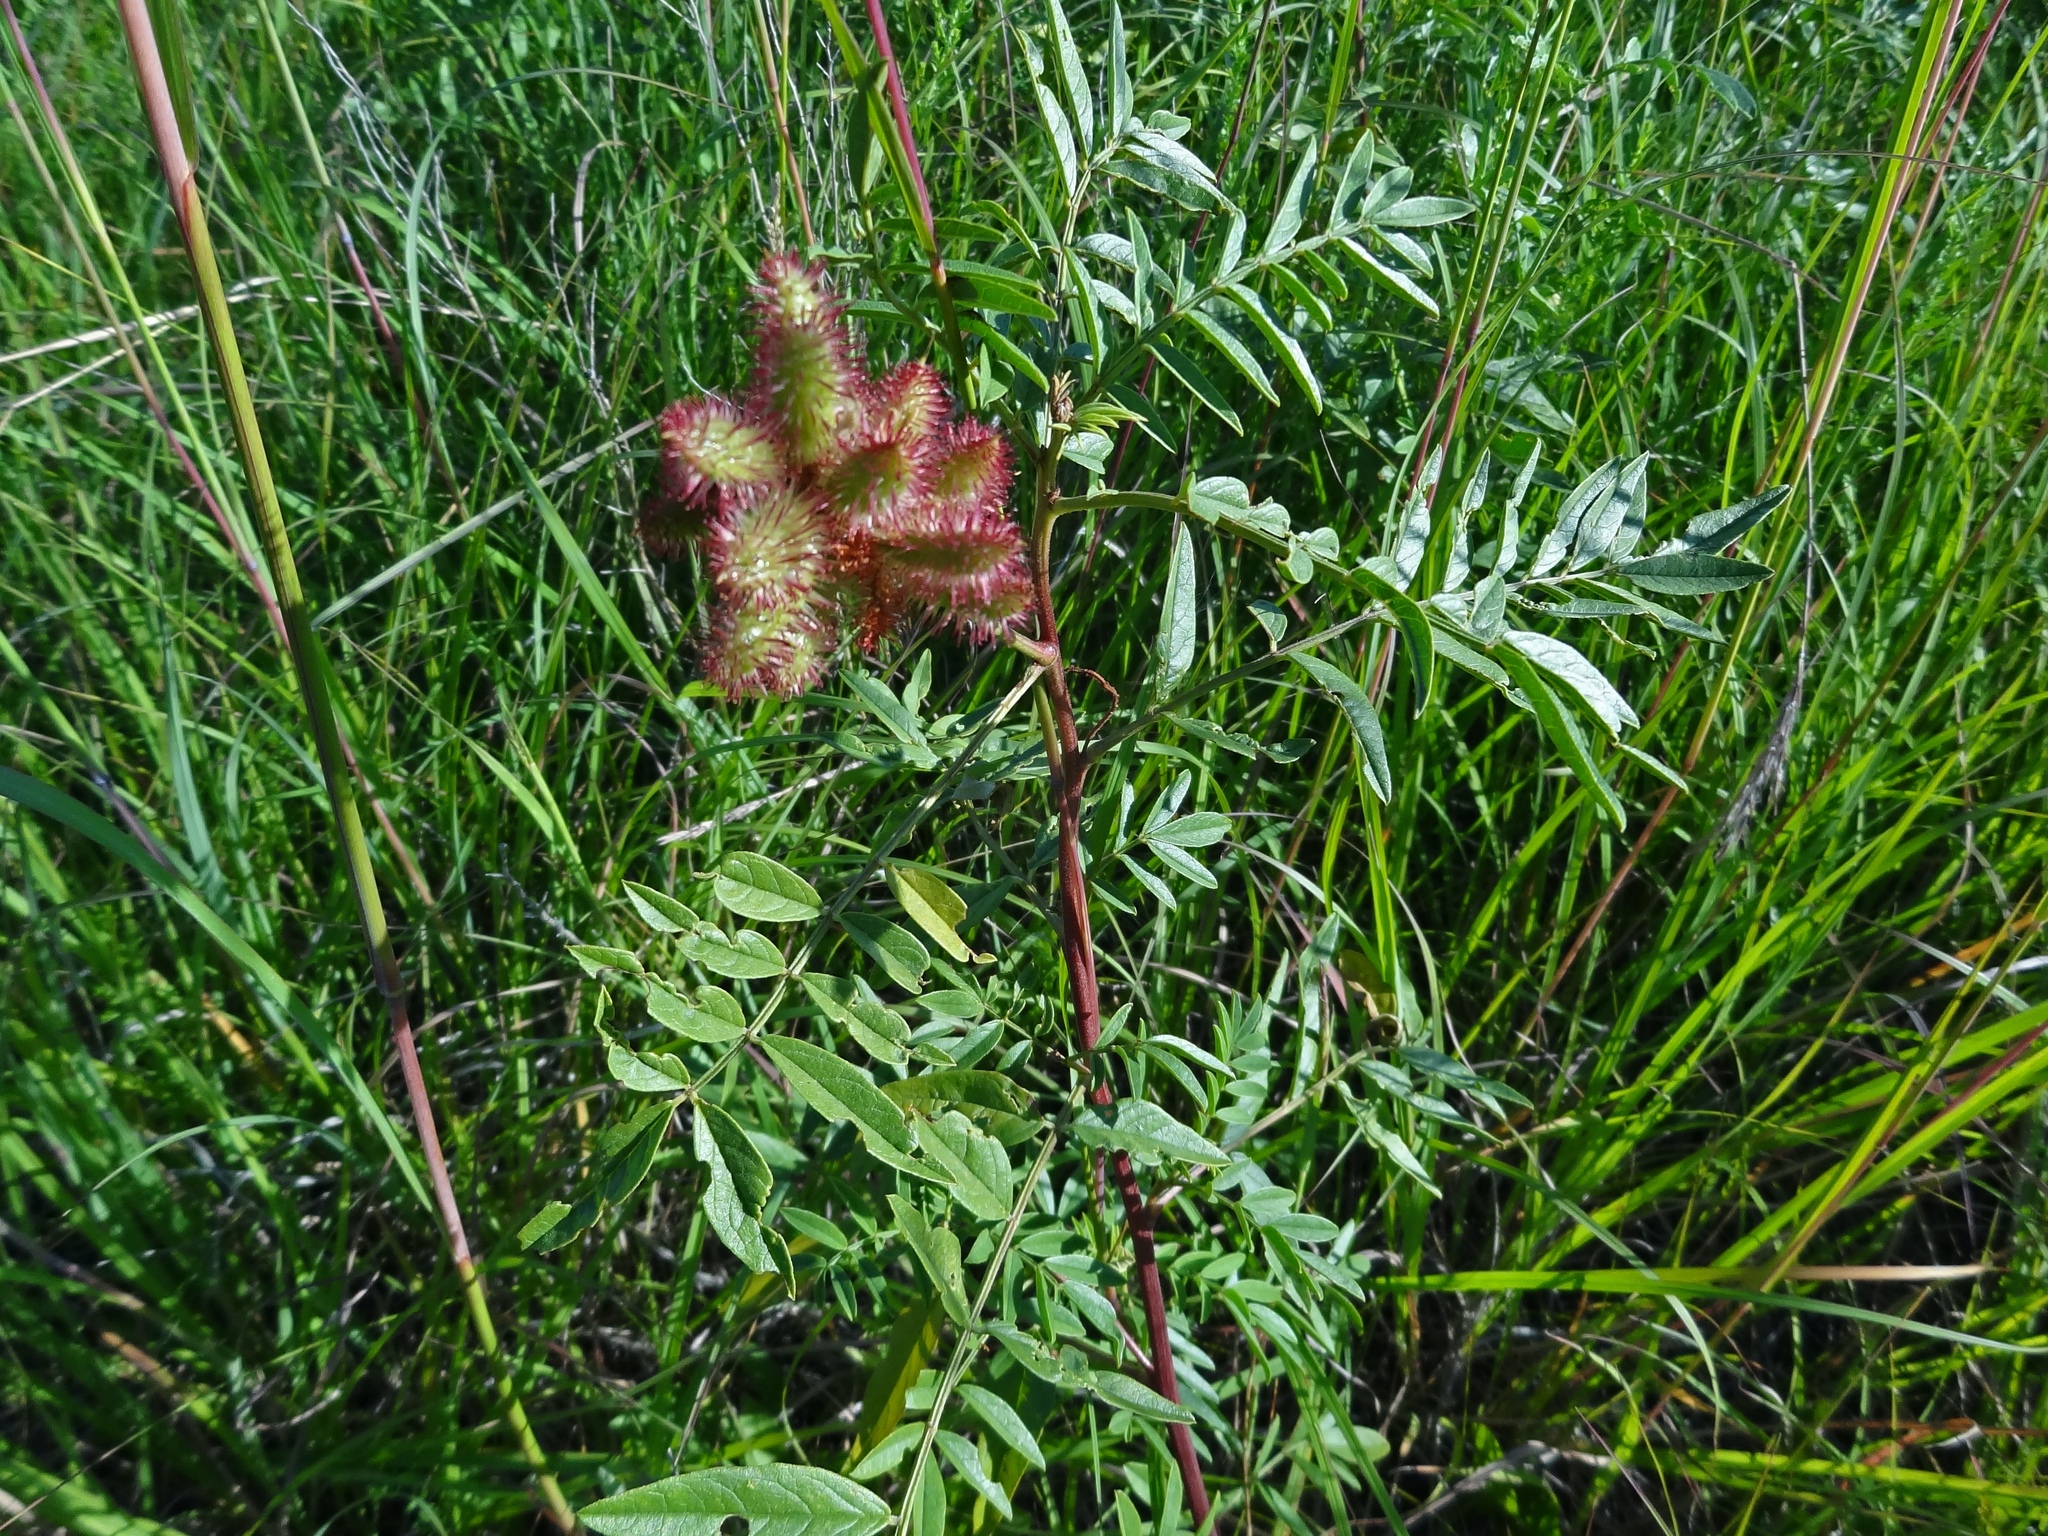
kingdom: Plantae
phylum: Tracheophyta
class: Magnoliopsida
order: Fabales
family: Fabaceae
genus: Glycyrrhiza
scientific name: Glycyrrhiza lepidota
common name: American liquorice
